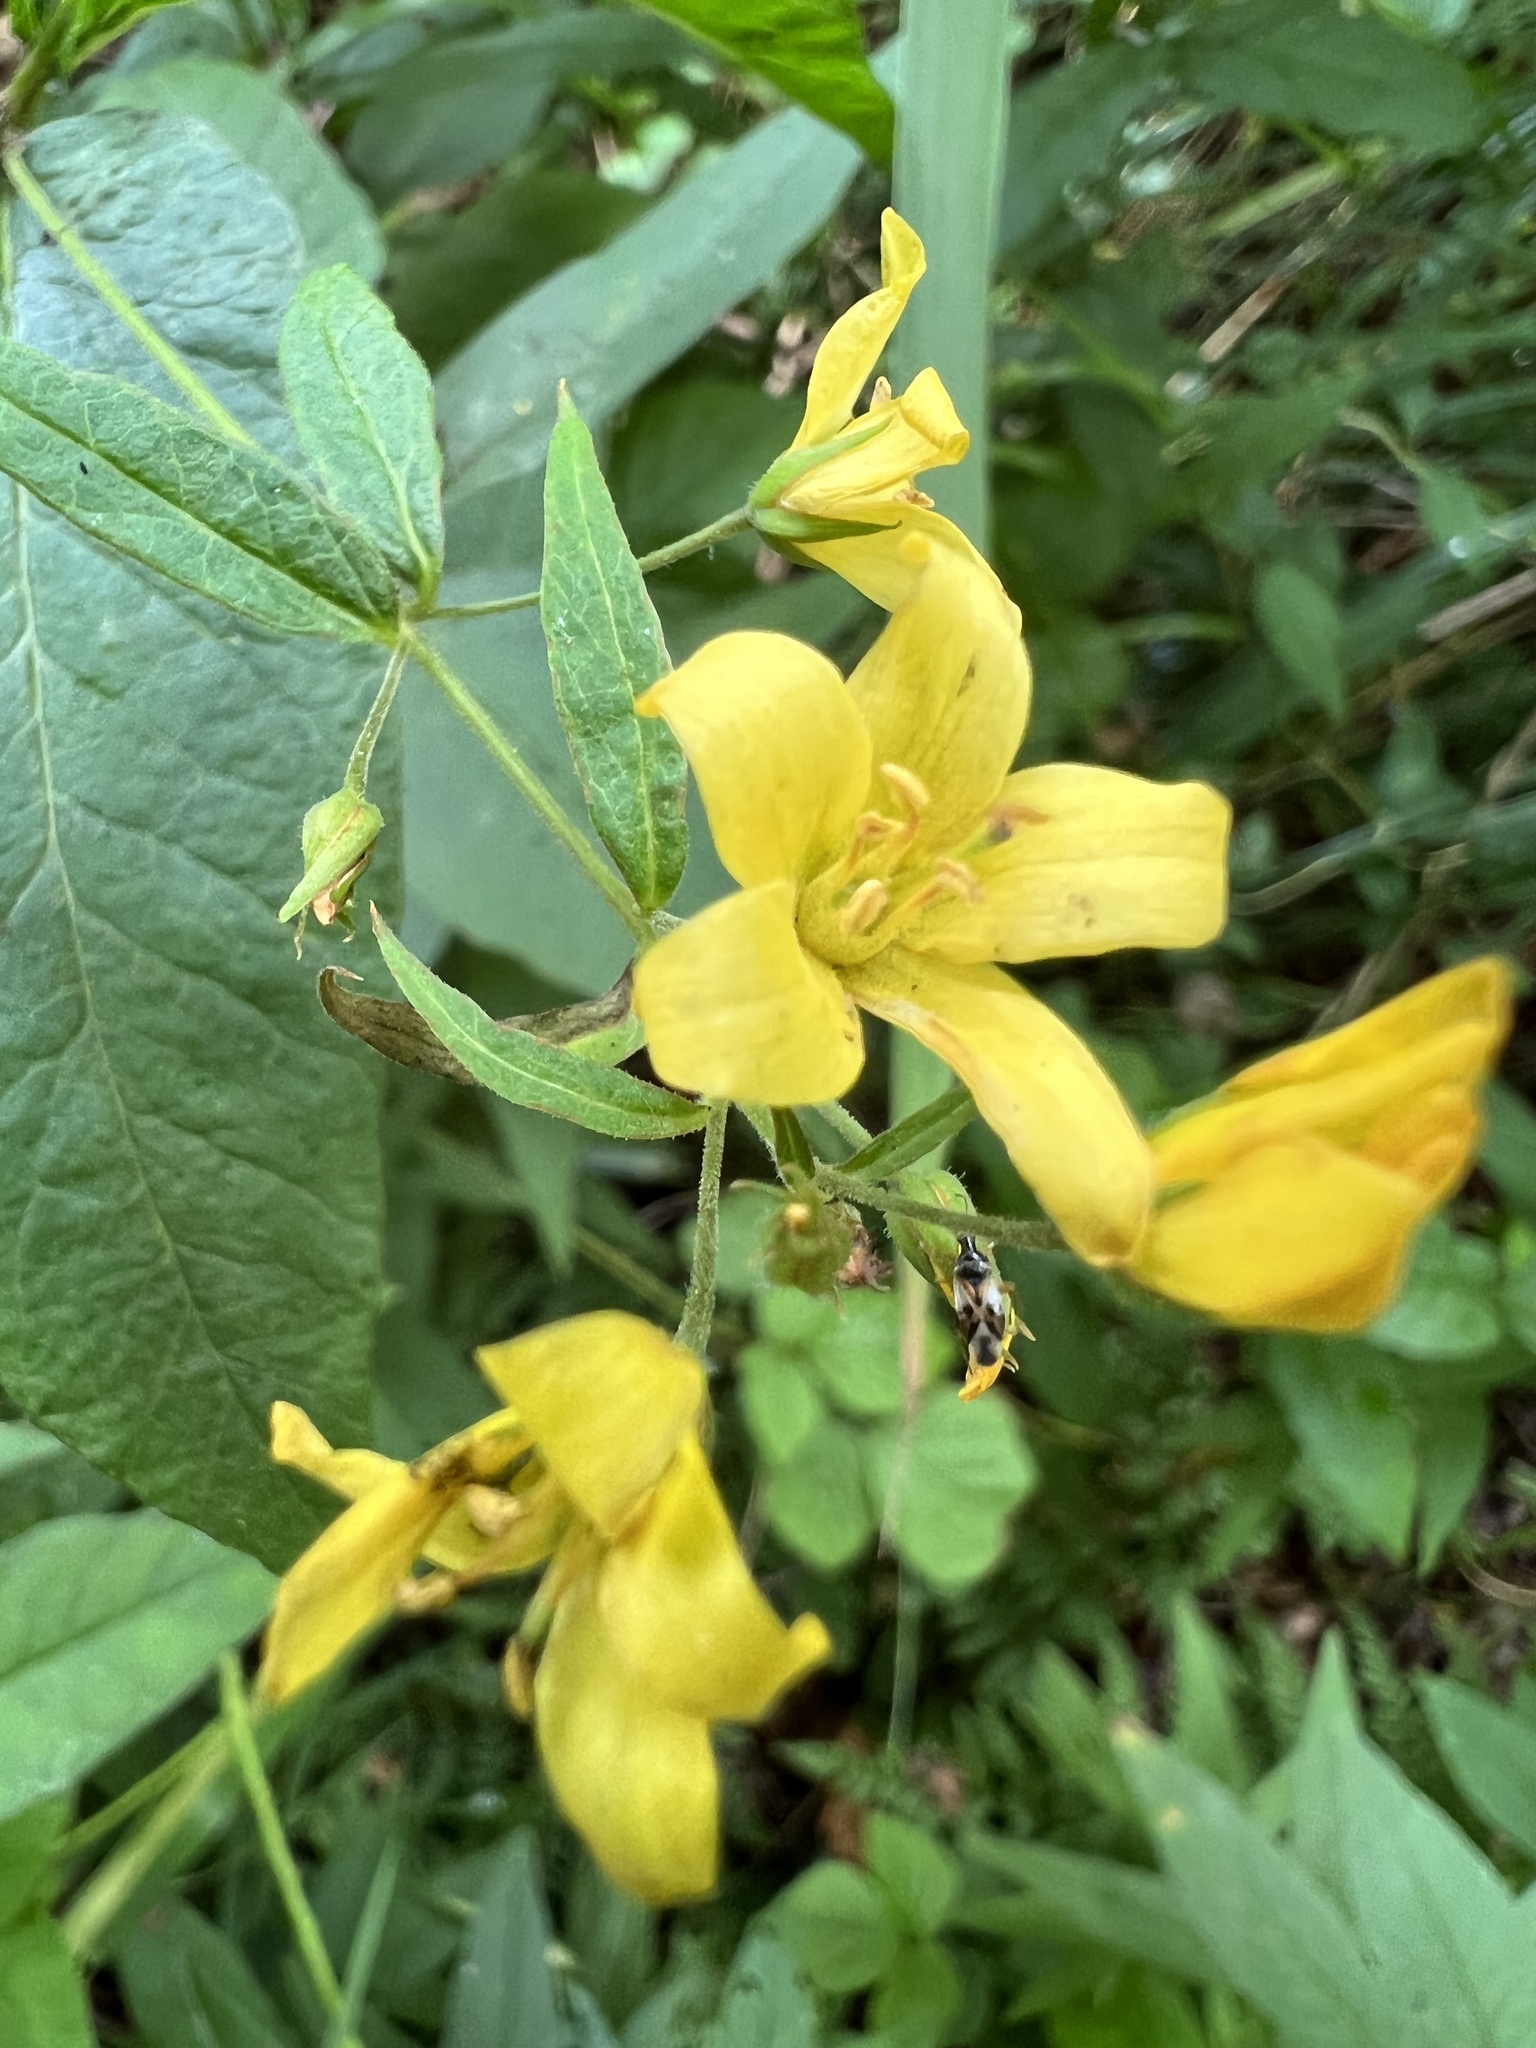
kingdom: Plantae
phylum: Tracheophyta
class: Magnoliopsida
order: Ericales
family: Primulaceae
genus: Lysimachia
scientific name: Lysimachia vulgaris
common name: Yellow loosestrife
